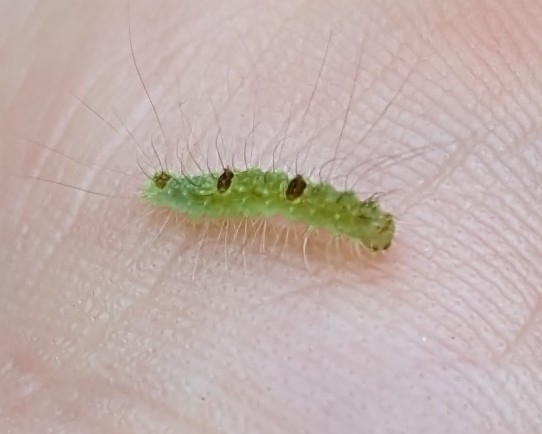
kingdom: Animalia
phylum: Arthropoda
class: Insecta
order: Lepidoptera
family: Noctuidae
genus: Acronicta
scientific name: Acronicta morula
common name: Ochre dagger
